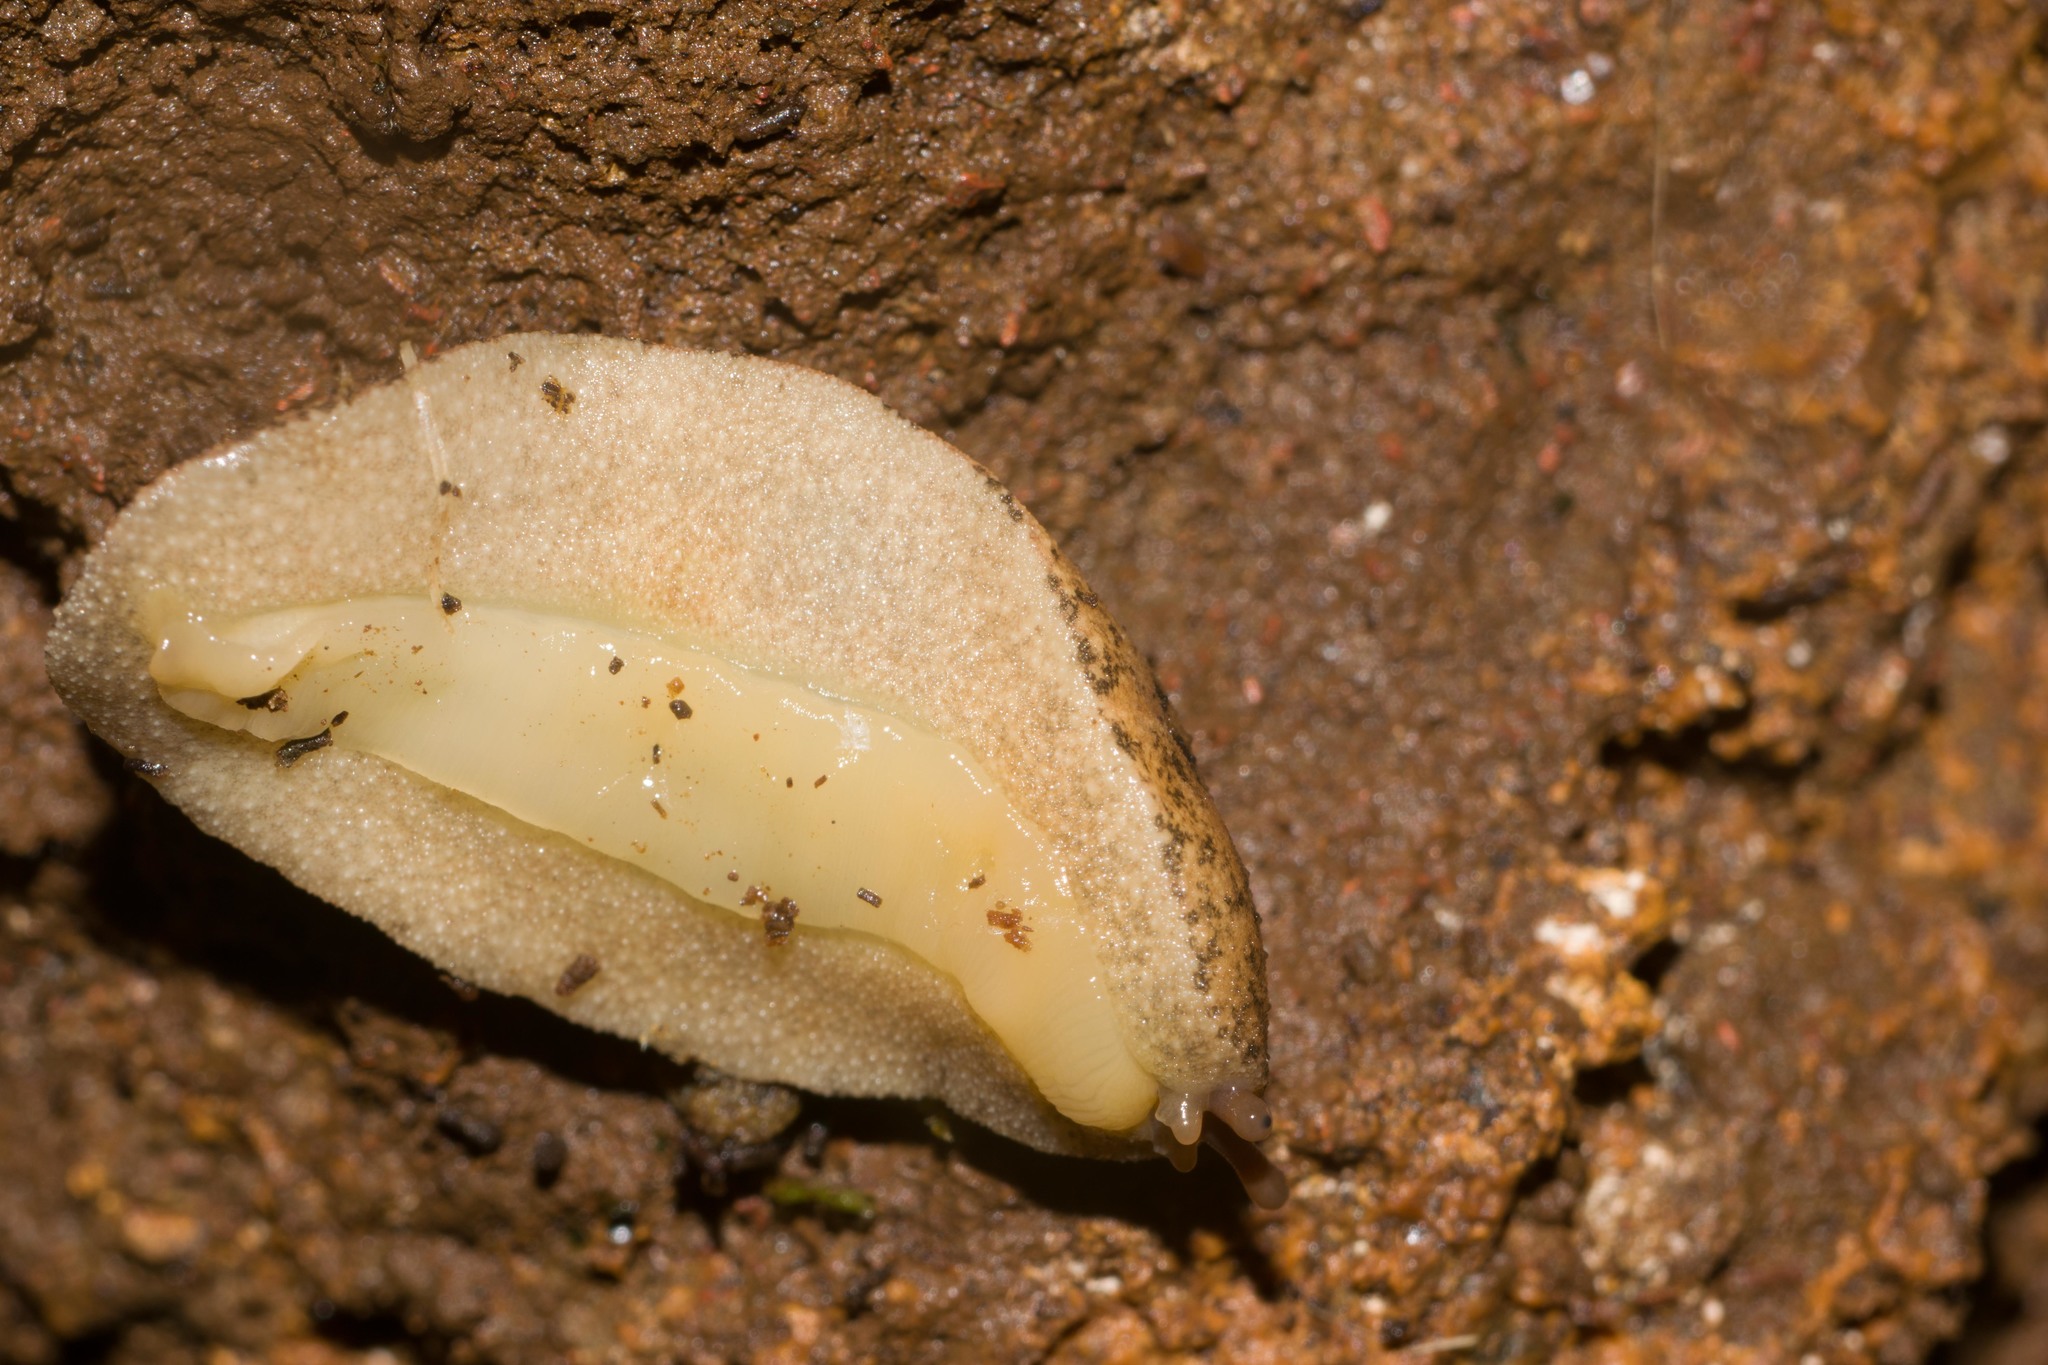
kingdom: Animalia
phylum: Mollusca
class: Gastropoda
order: Systellommatophora
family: Veronicellidae
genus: Veronicella
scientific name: Veronicella cubensis
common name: Two striped slug
